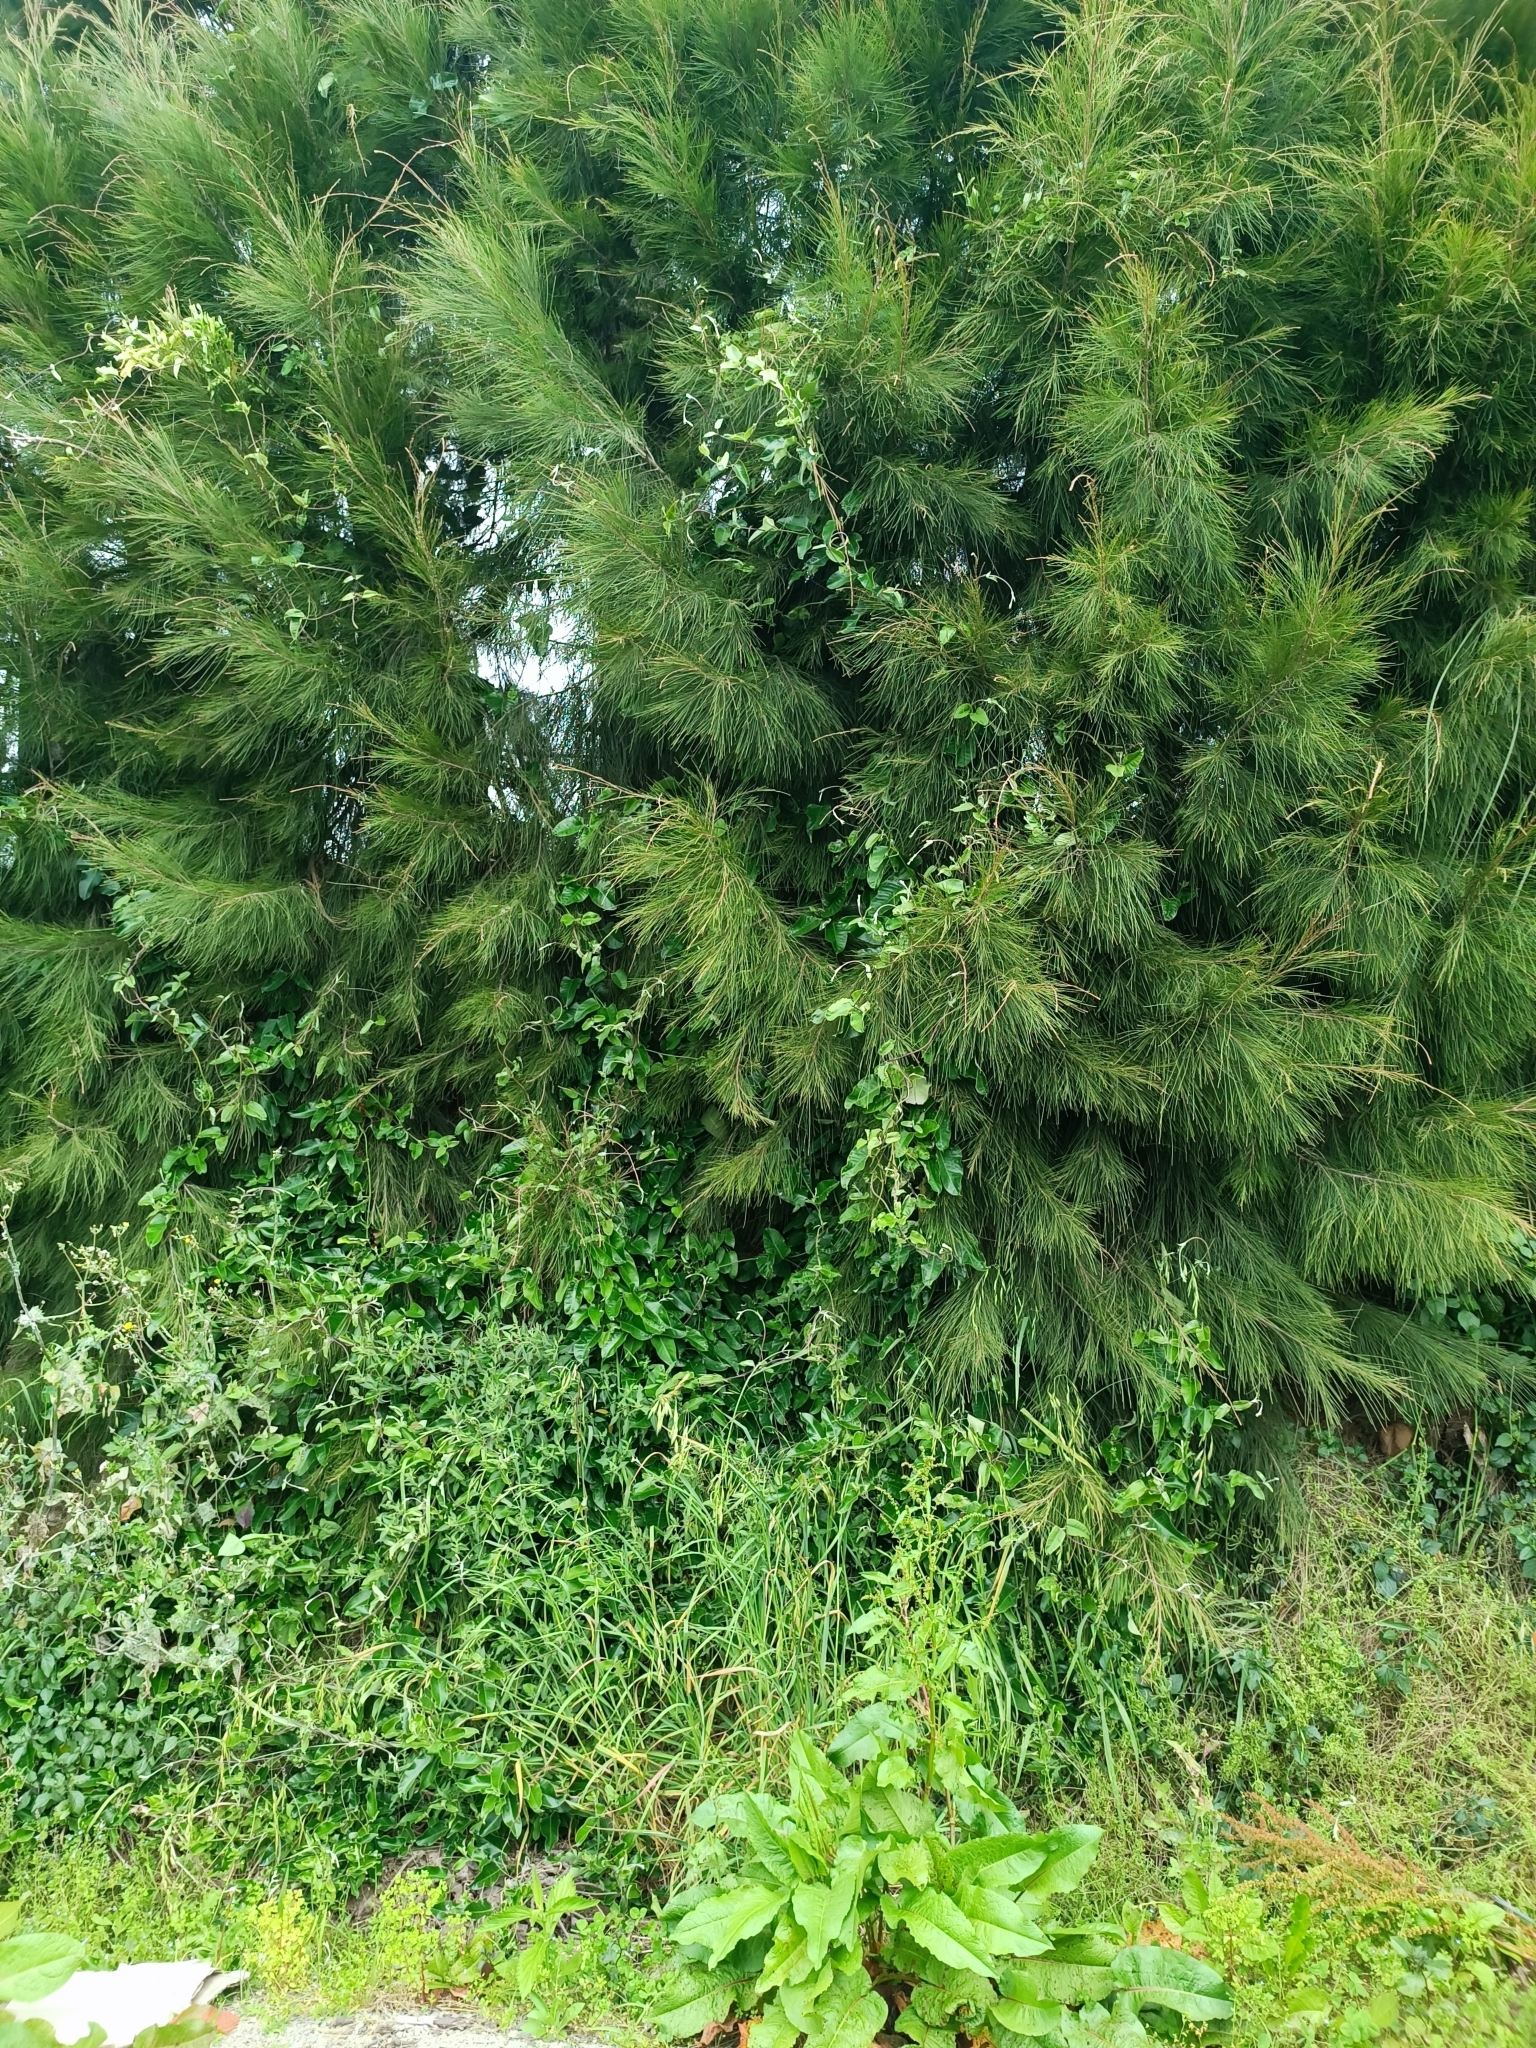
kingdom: Plantae
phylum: Tracheophyta
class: Magnoliopsida
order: Gentianales
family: Apocynaceae
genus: Araujia
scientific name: Araujia sericifera
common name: White bladderflower
